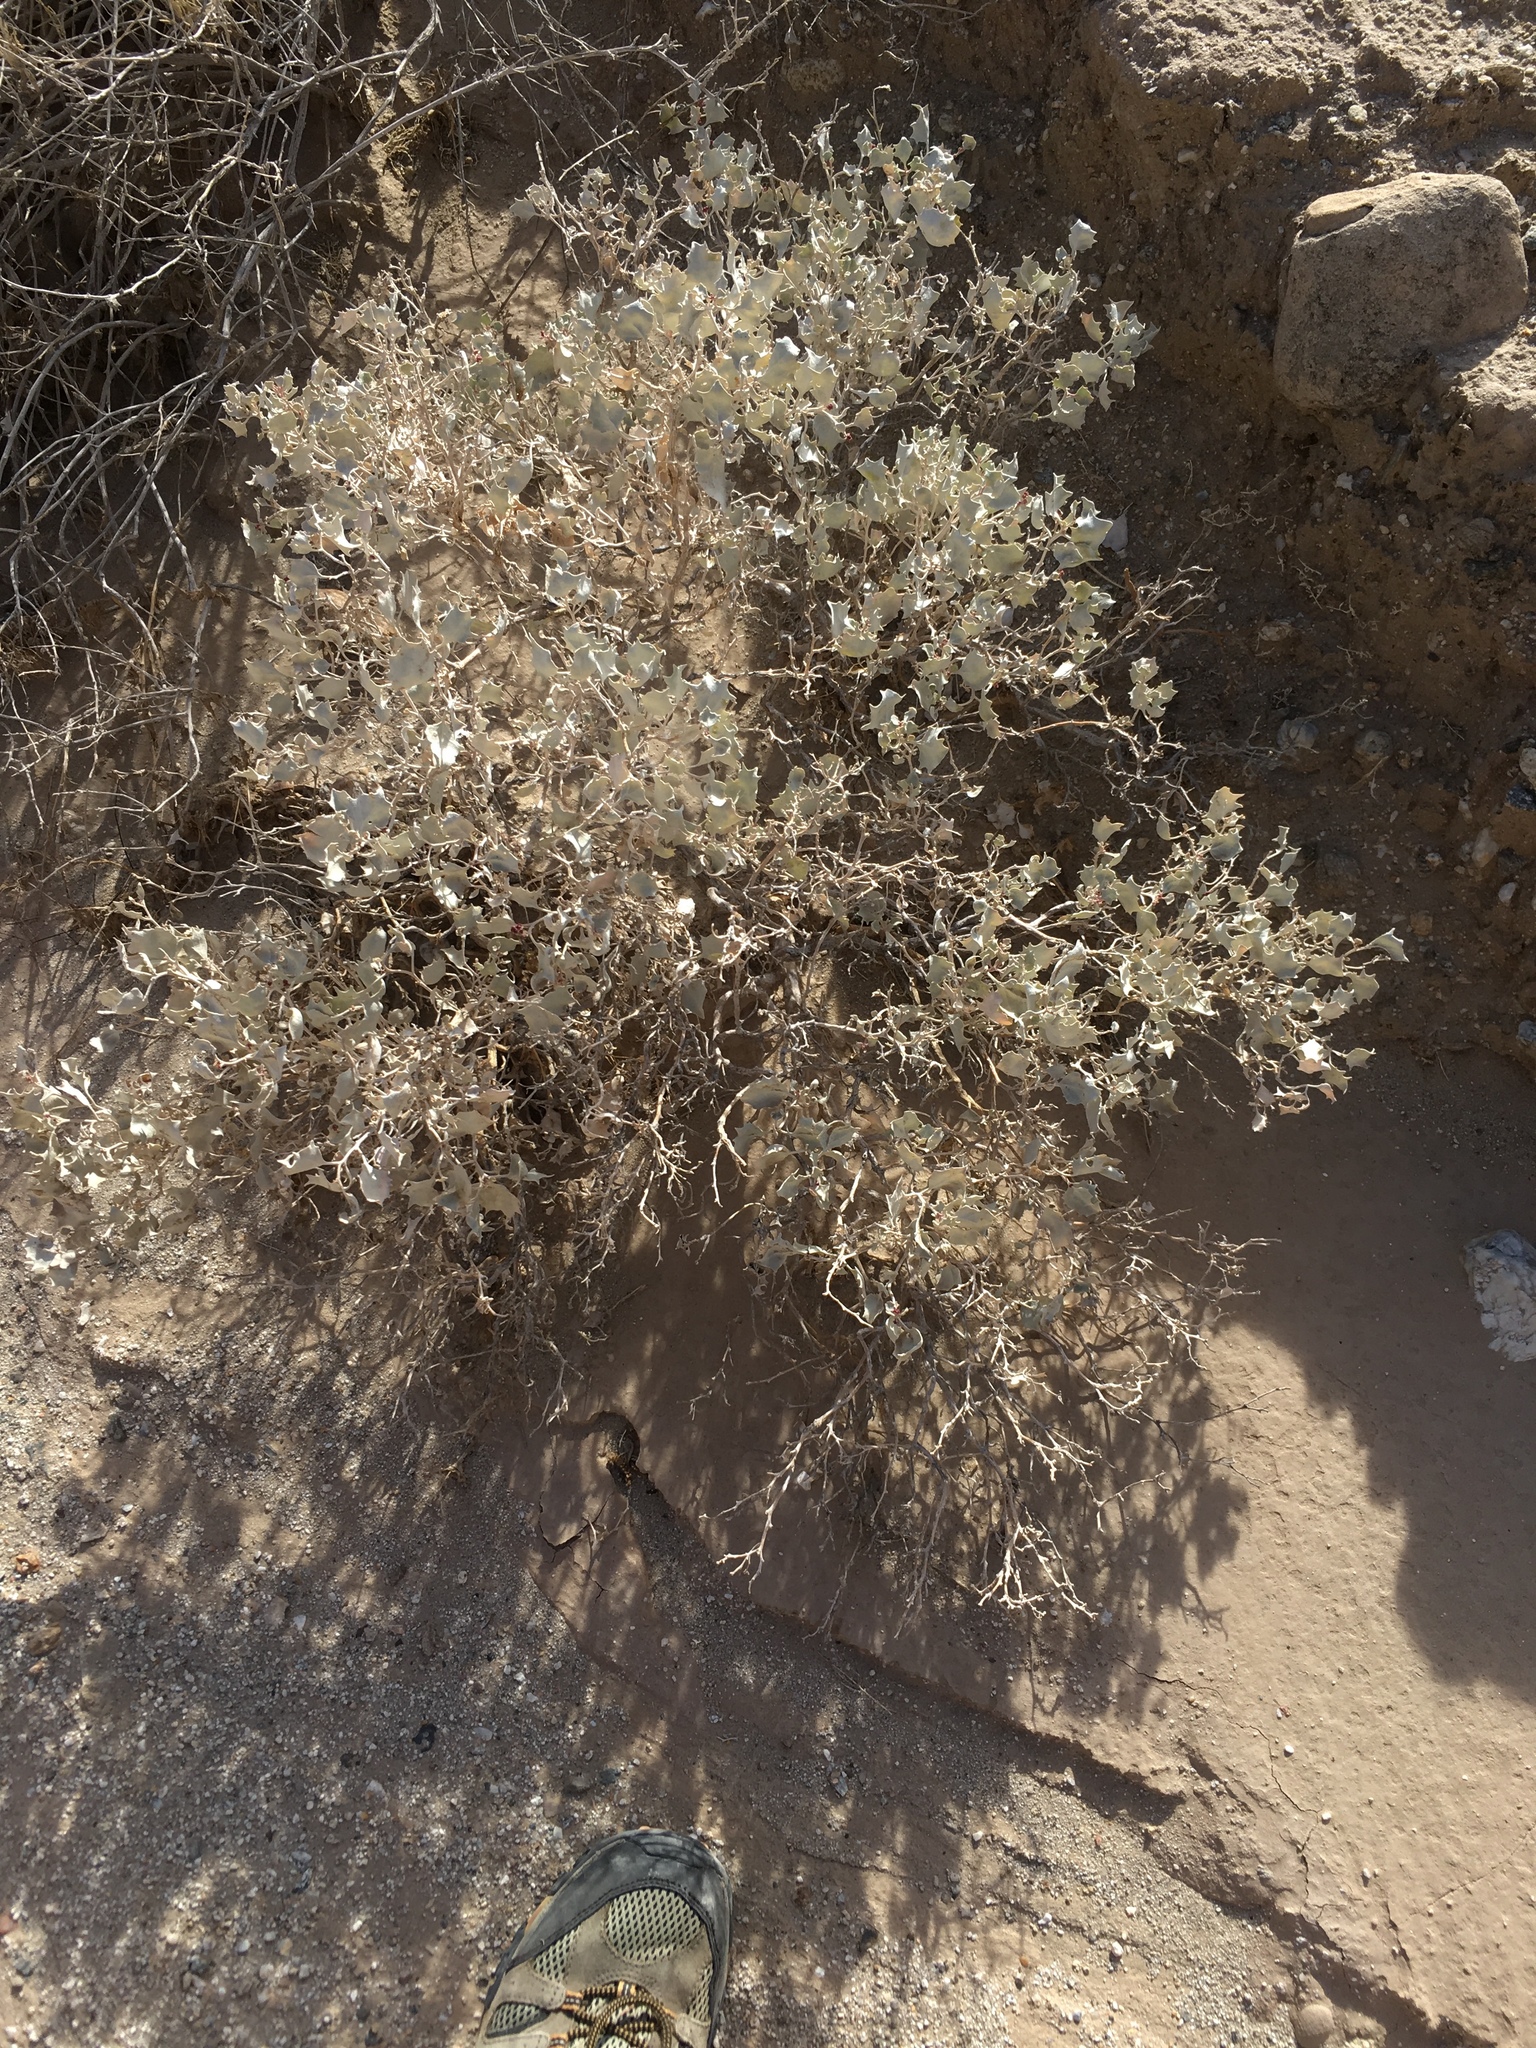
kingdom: Plantae
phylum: Tracheophyta
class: Magnoliopsida
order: Caryophyllales
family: Amaranthaceae
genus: Atriplex
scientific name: Atriplex hymenelytra
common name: Desert-holly
